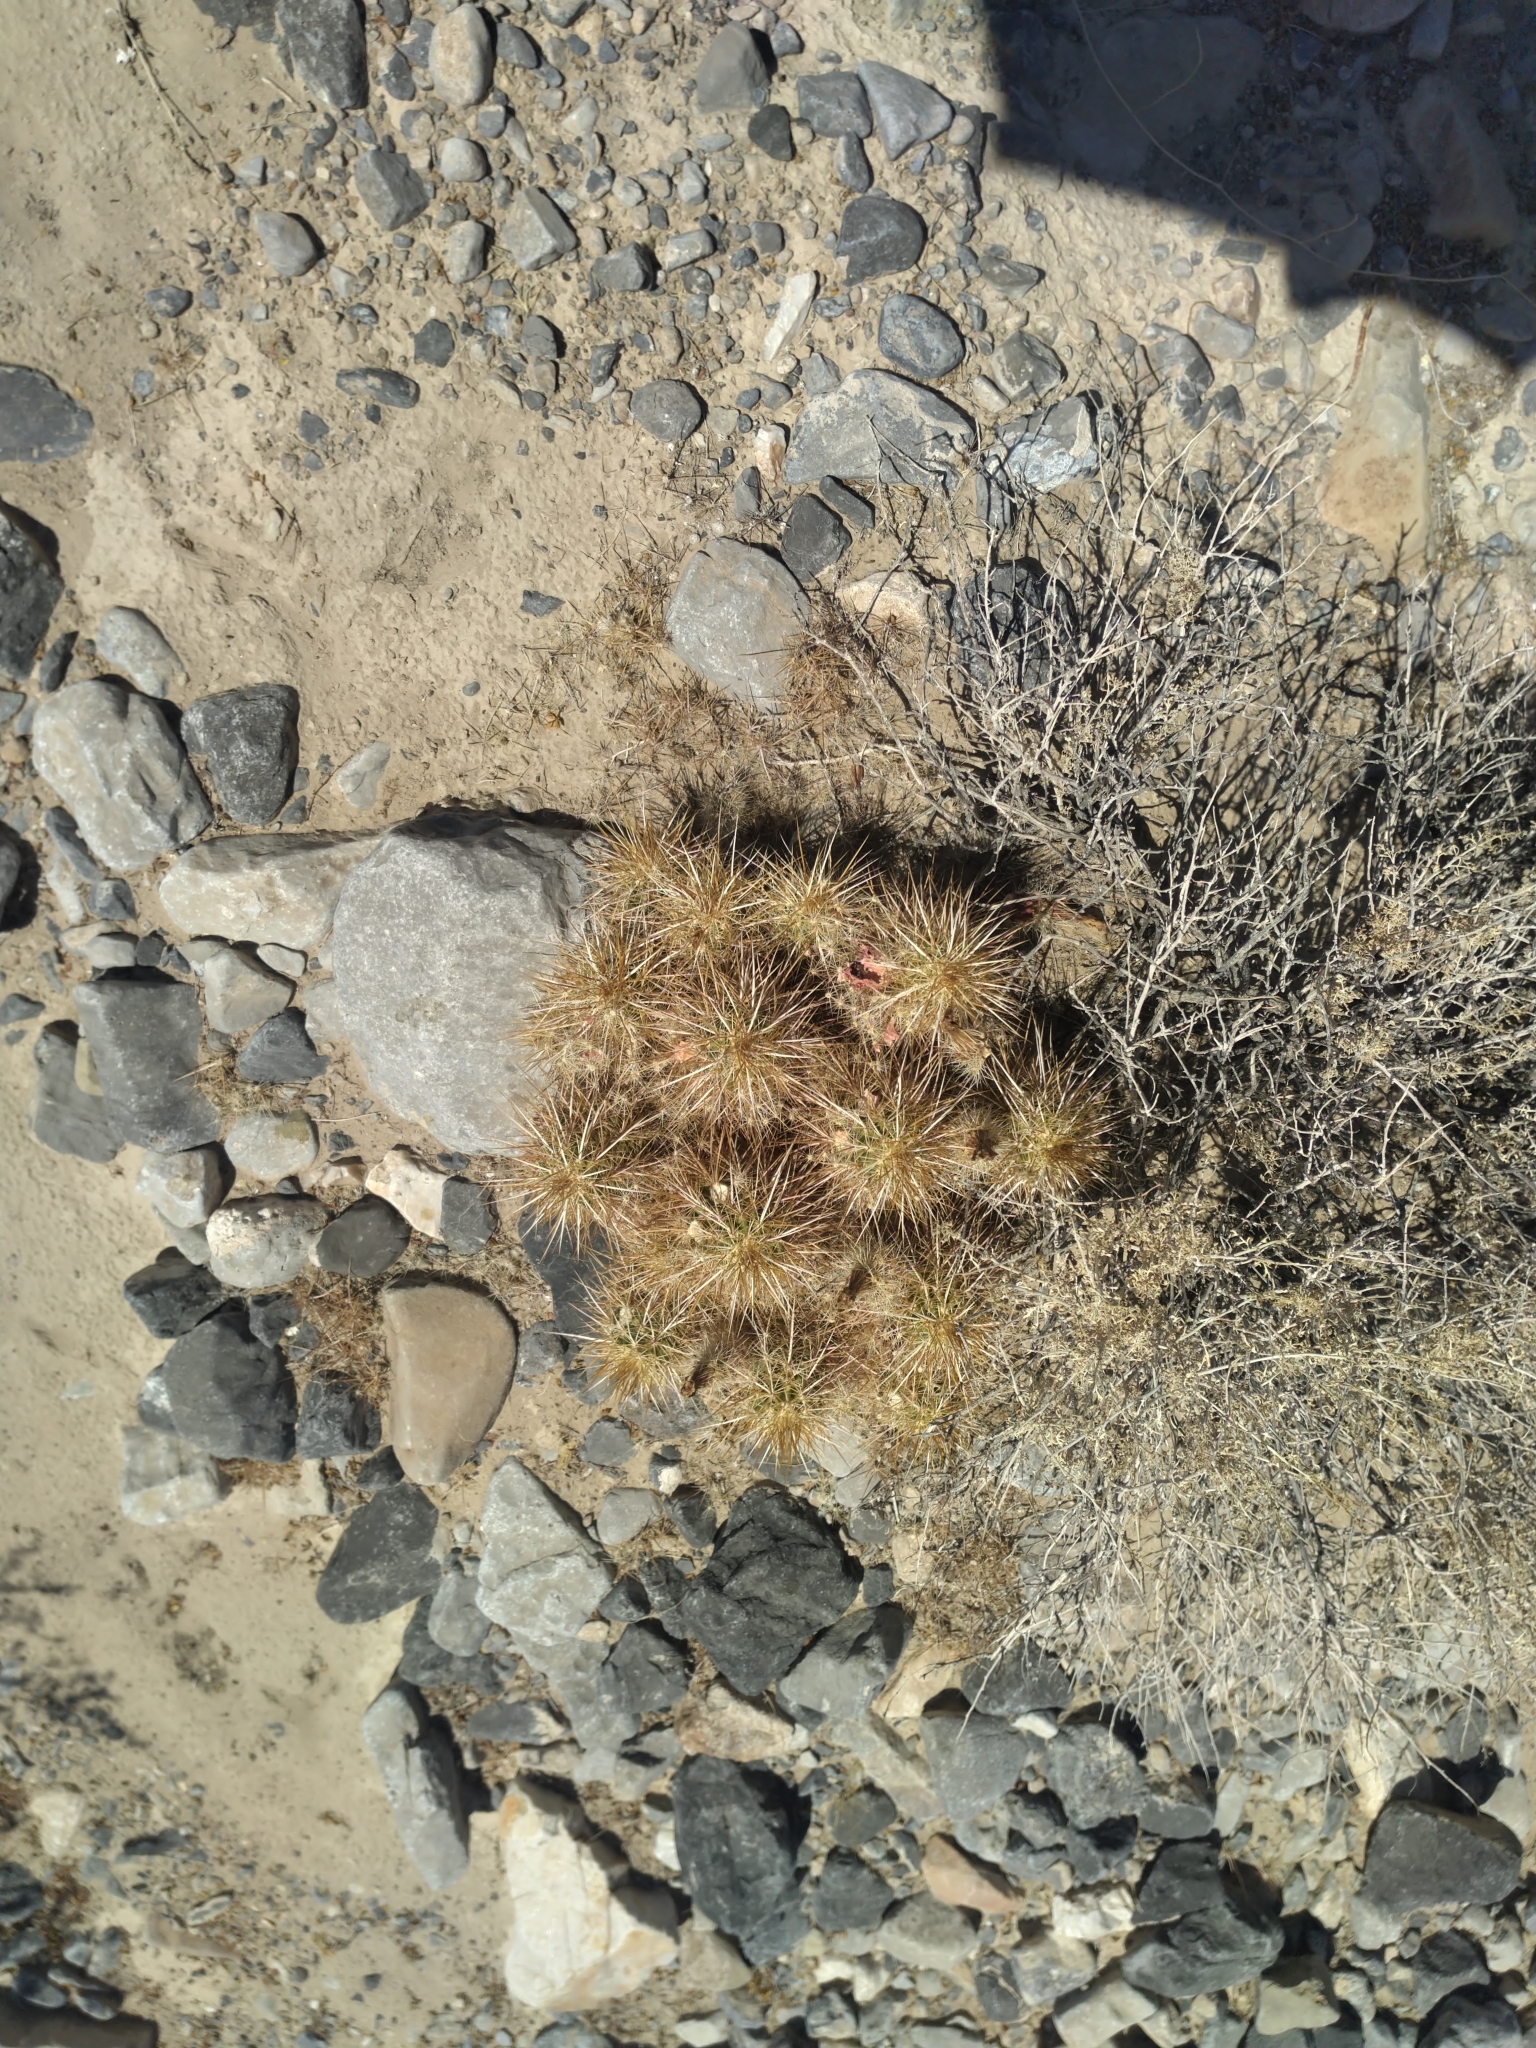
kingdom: Plantae
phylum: Tracheophyta
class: Magnoliopsida
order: Caryophyllales
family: Cactaceae
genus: Echinocereus
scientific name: Echinocereus engelmannii
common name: Engelmann's hedgehog cactus
